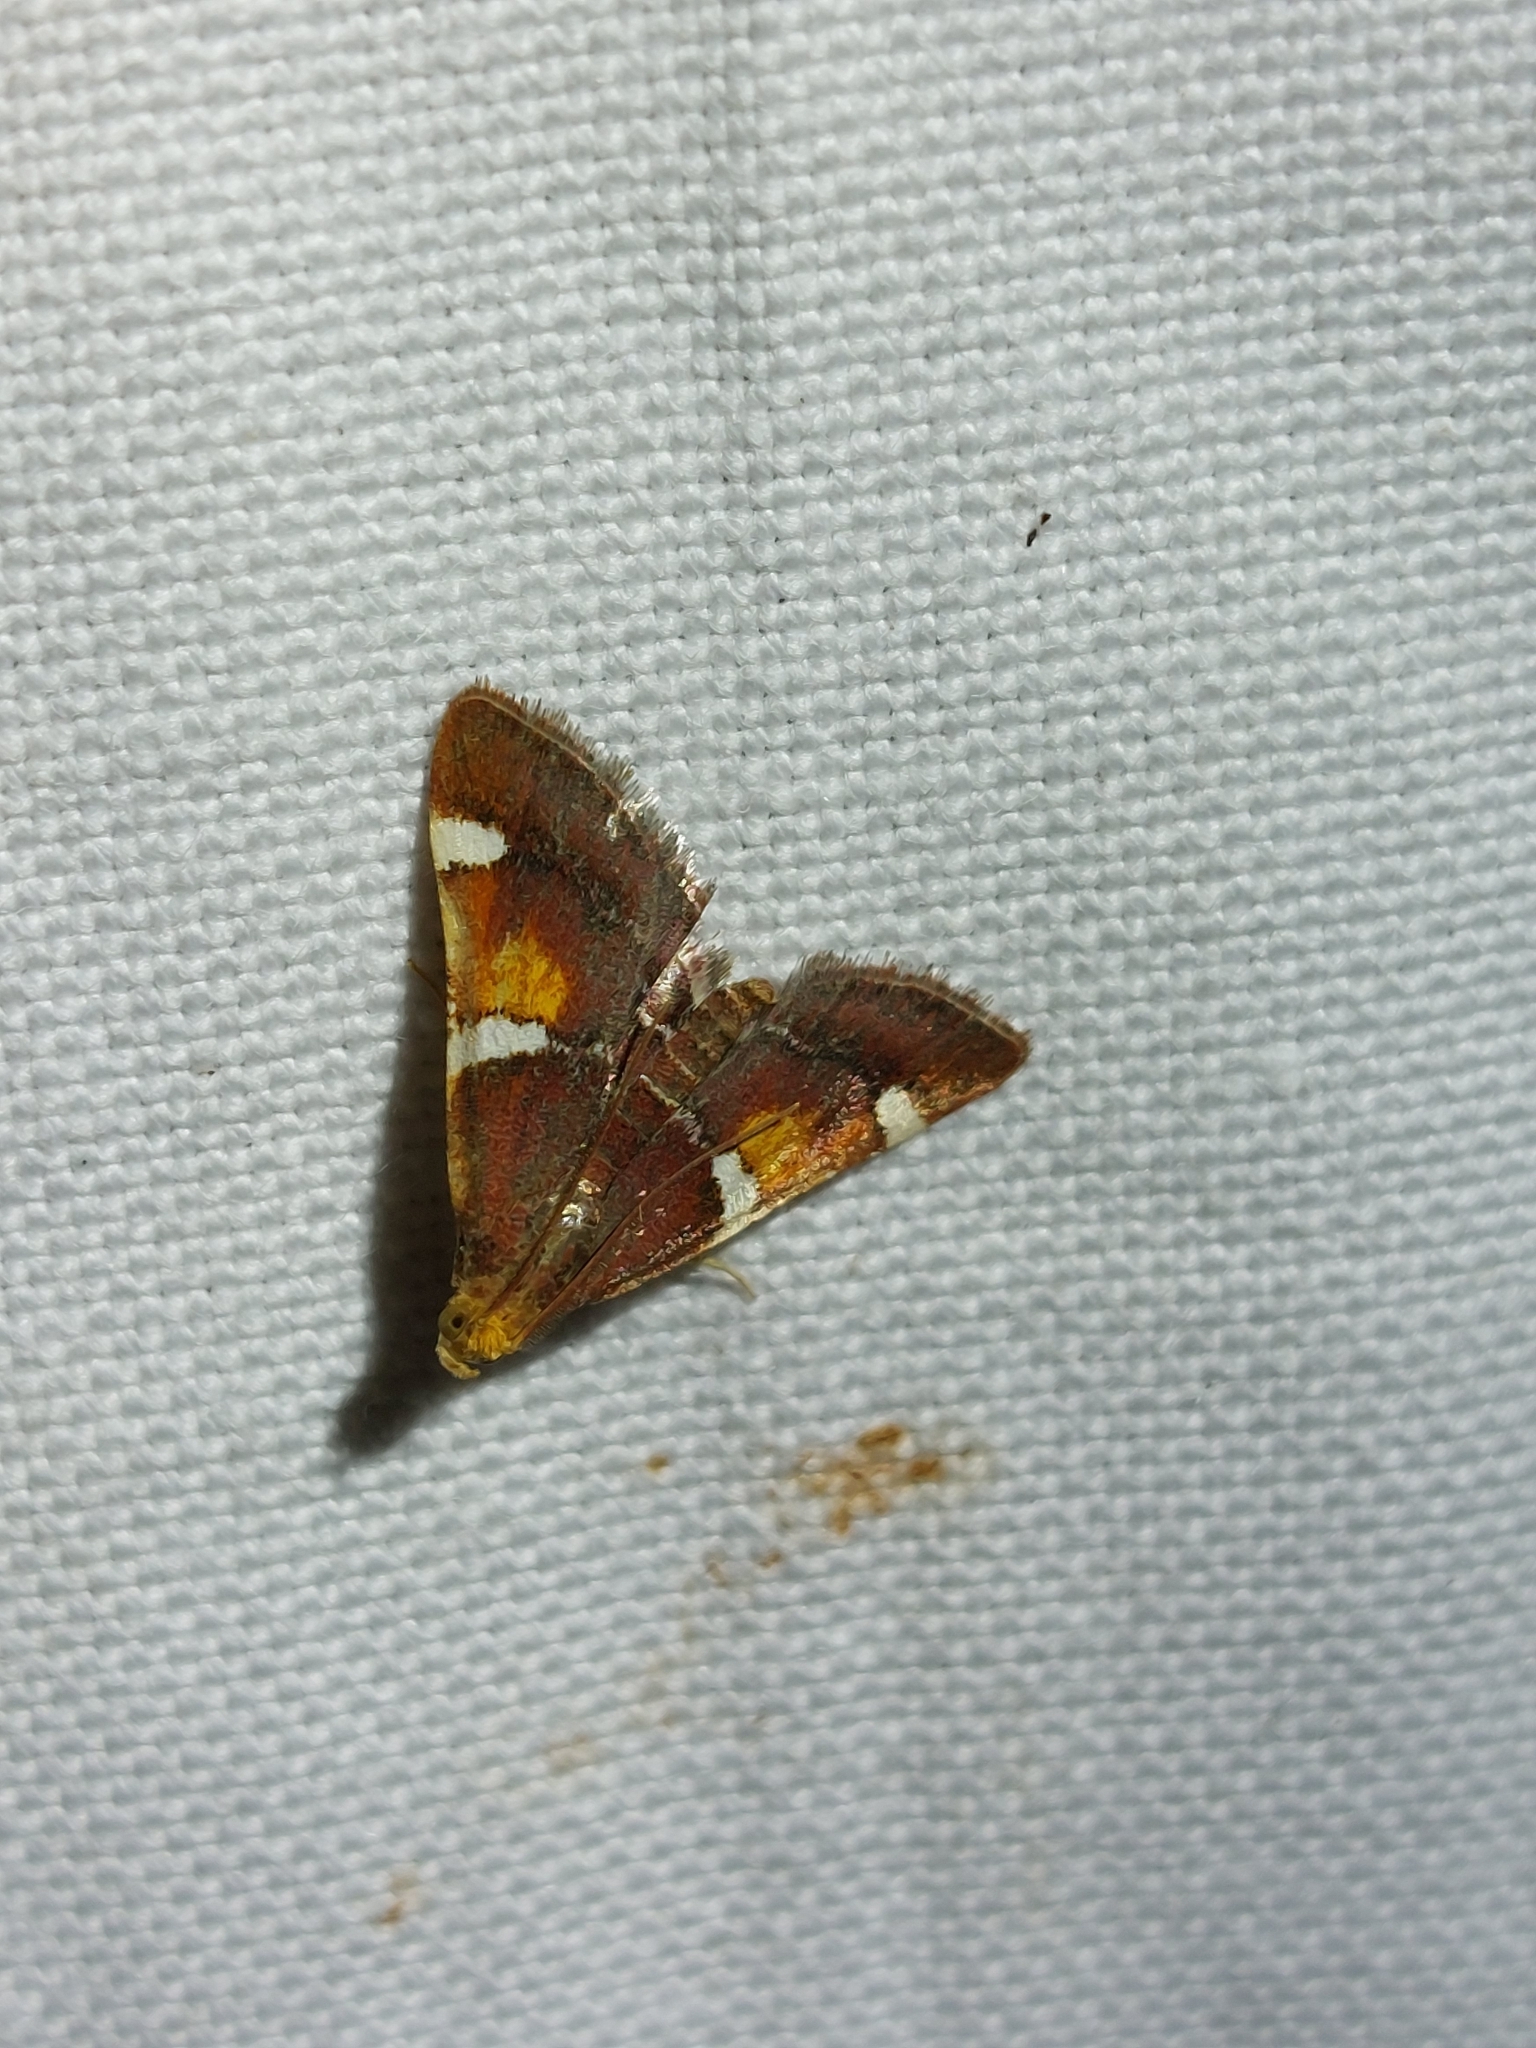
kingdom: Animalia
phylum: Arthropoda
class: Insecta
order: Lepidoptera
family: Pyralidae
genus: Pyralis
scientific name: Pyralis regalis
